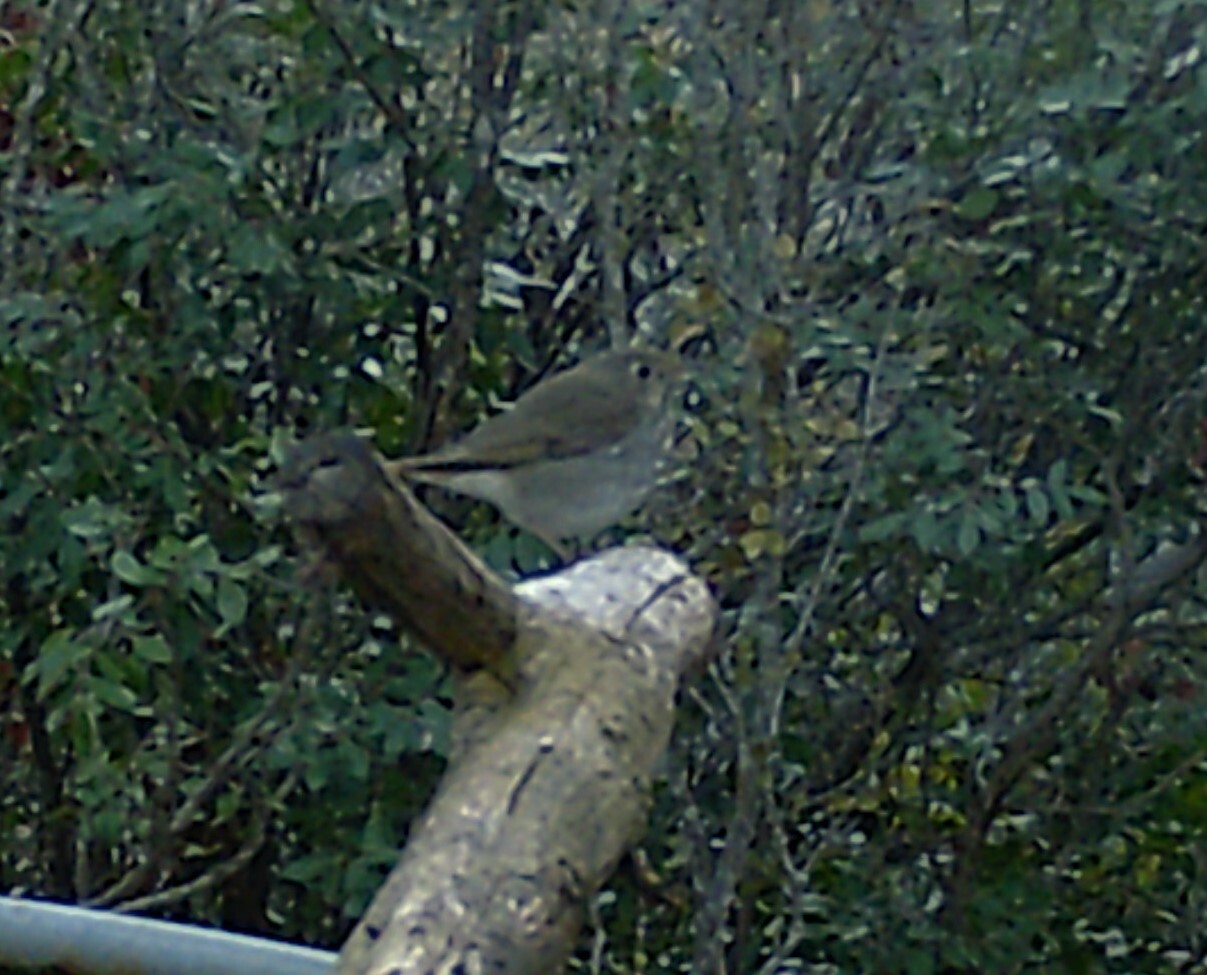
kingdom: Animalia
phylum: Chordata
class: Aves
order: Passeriformes
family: Turdidae
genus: Catharus
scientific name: Catharus guttatus
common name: Hermit thrush
